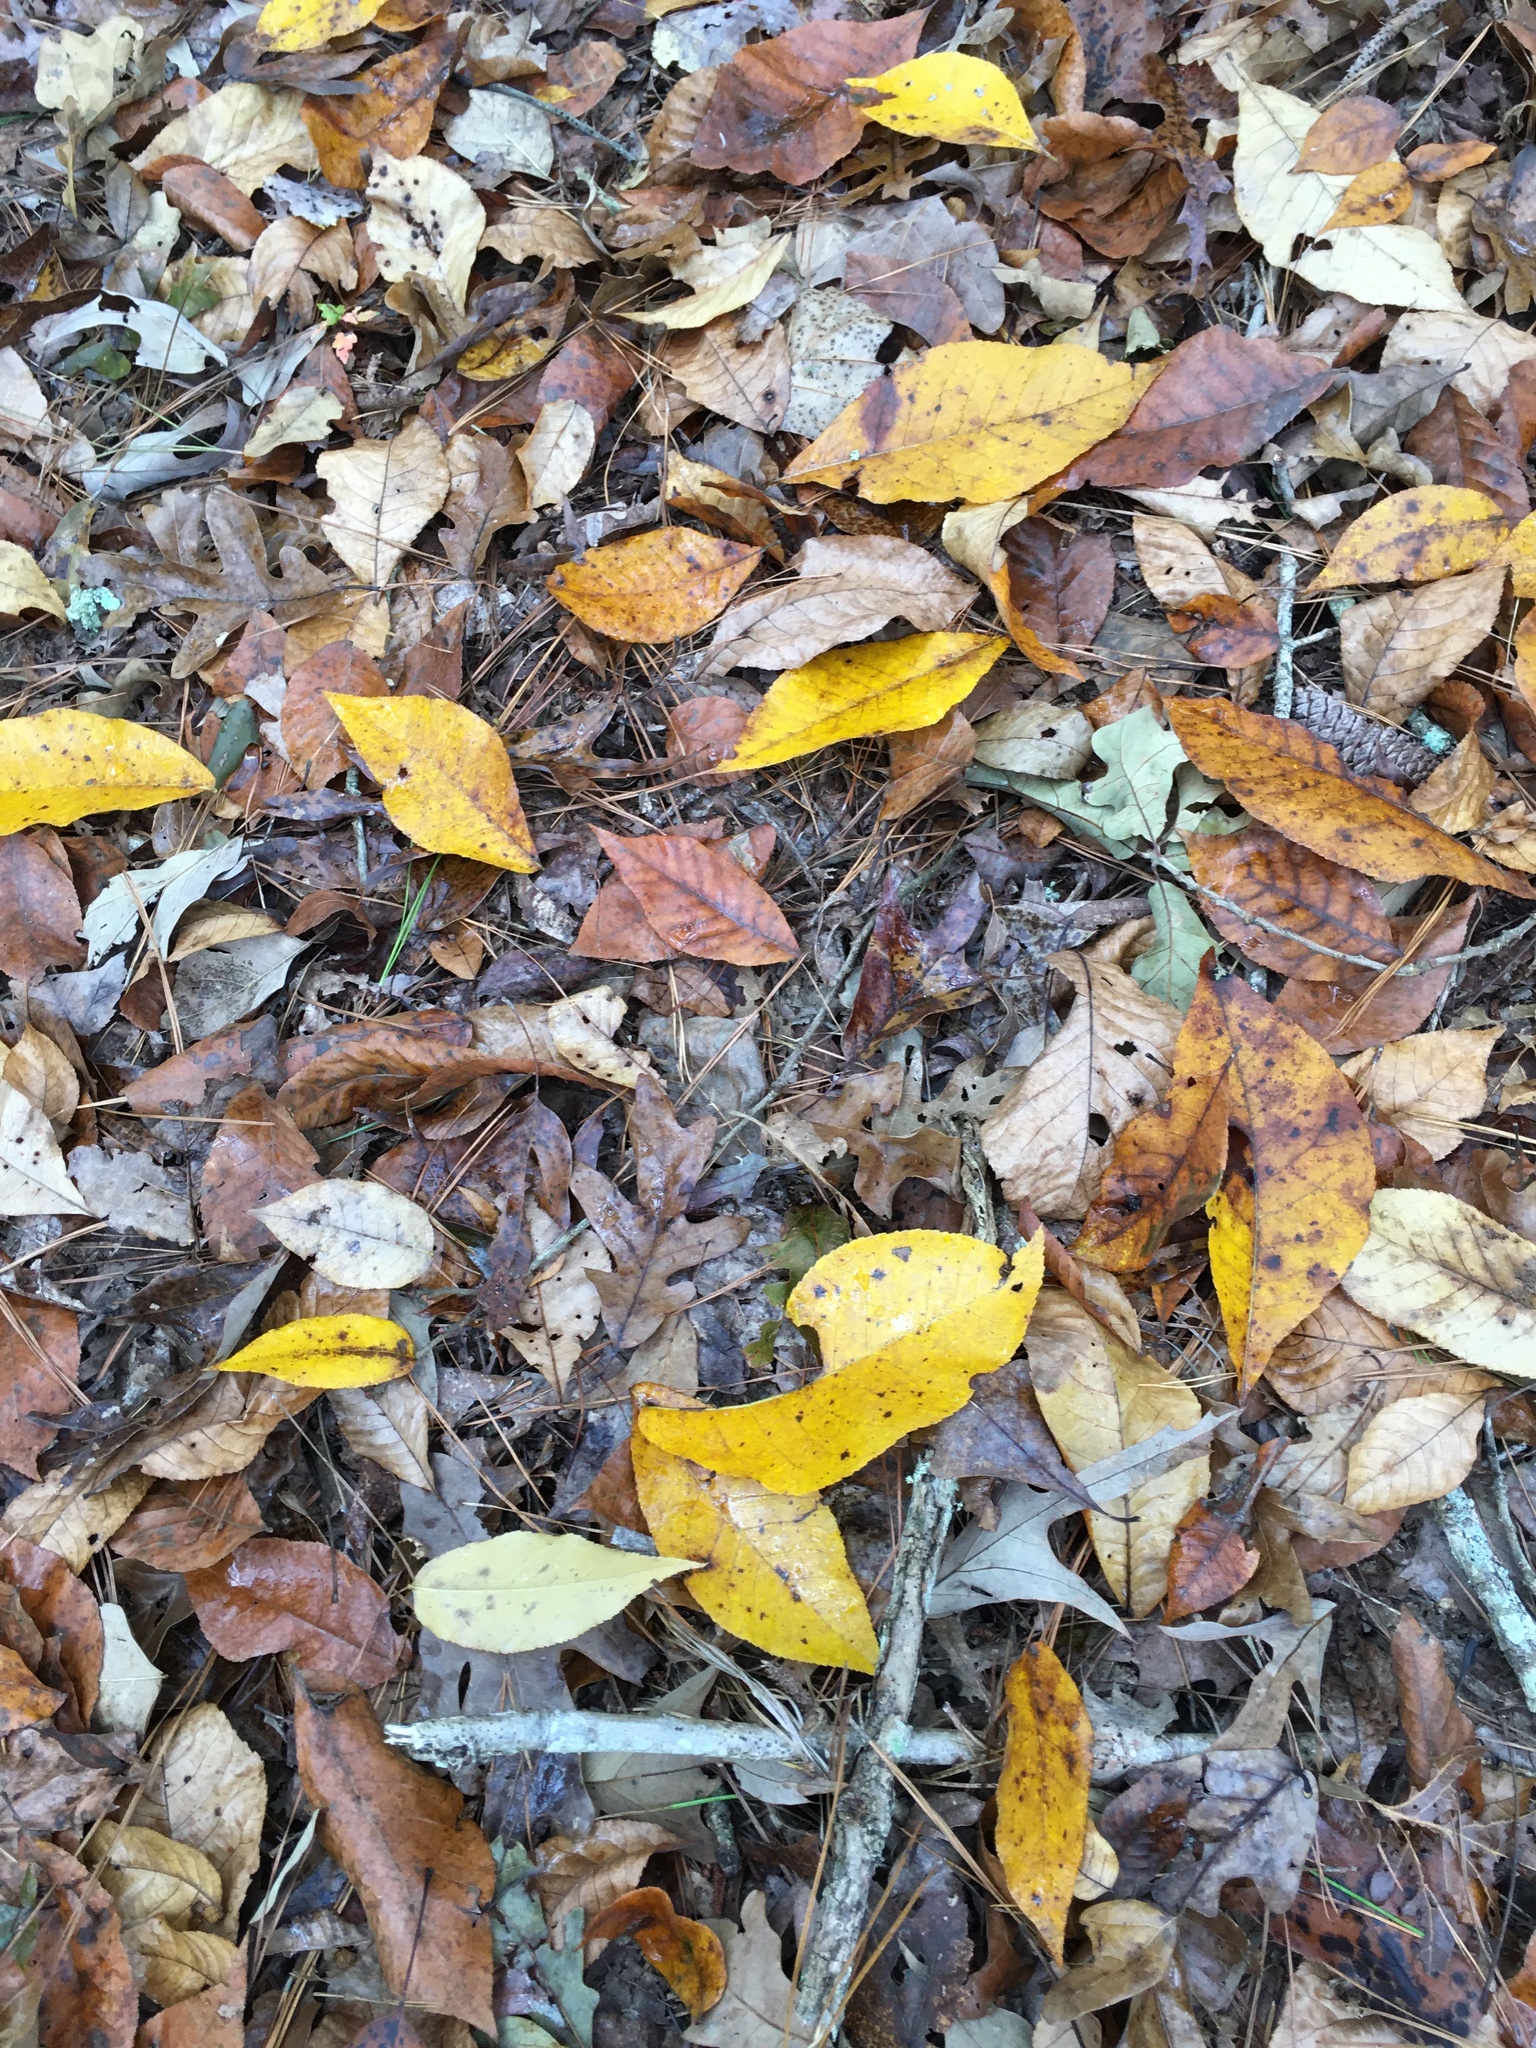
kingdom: Plantae
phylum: Tracheophyta
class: Magnoliopsida
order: Fagales
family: Juglandaceae
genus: Carya
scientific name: Carya alba
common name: Mockernut hickory
